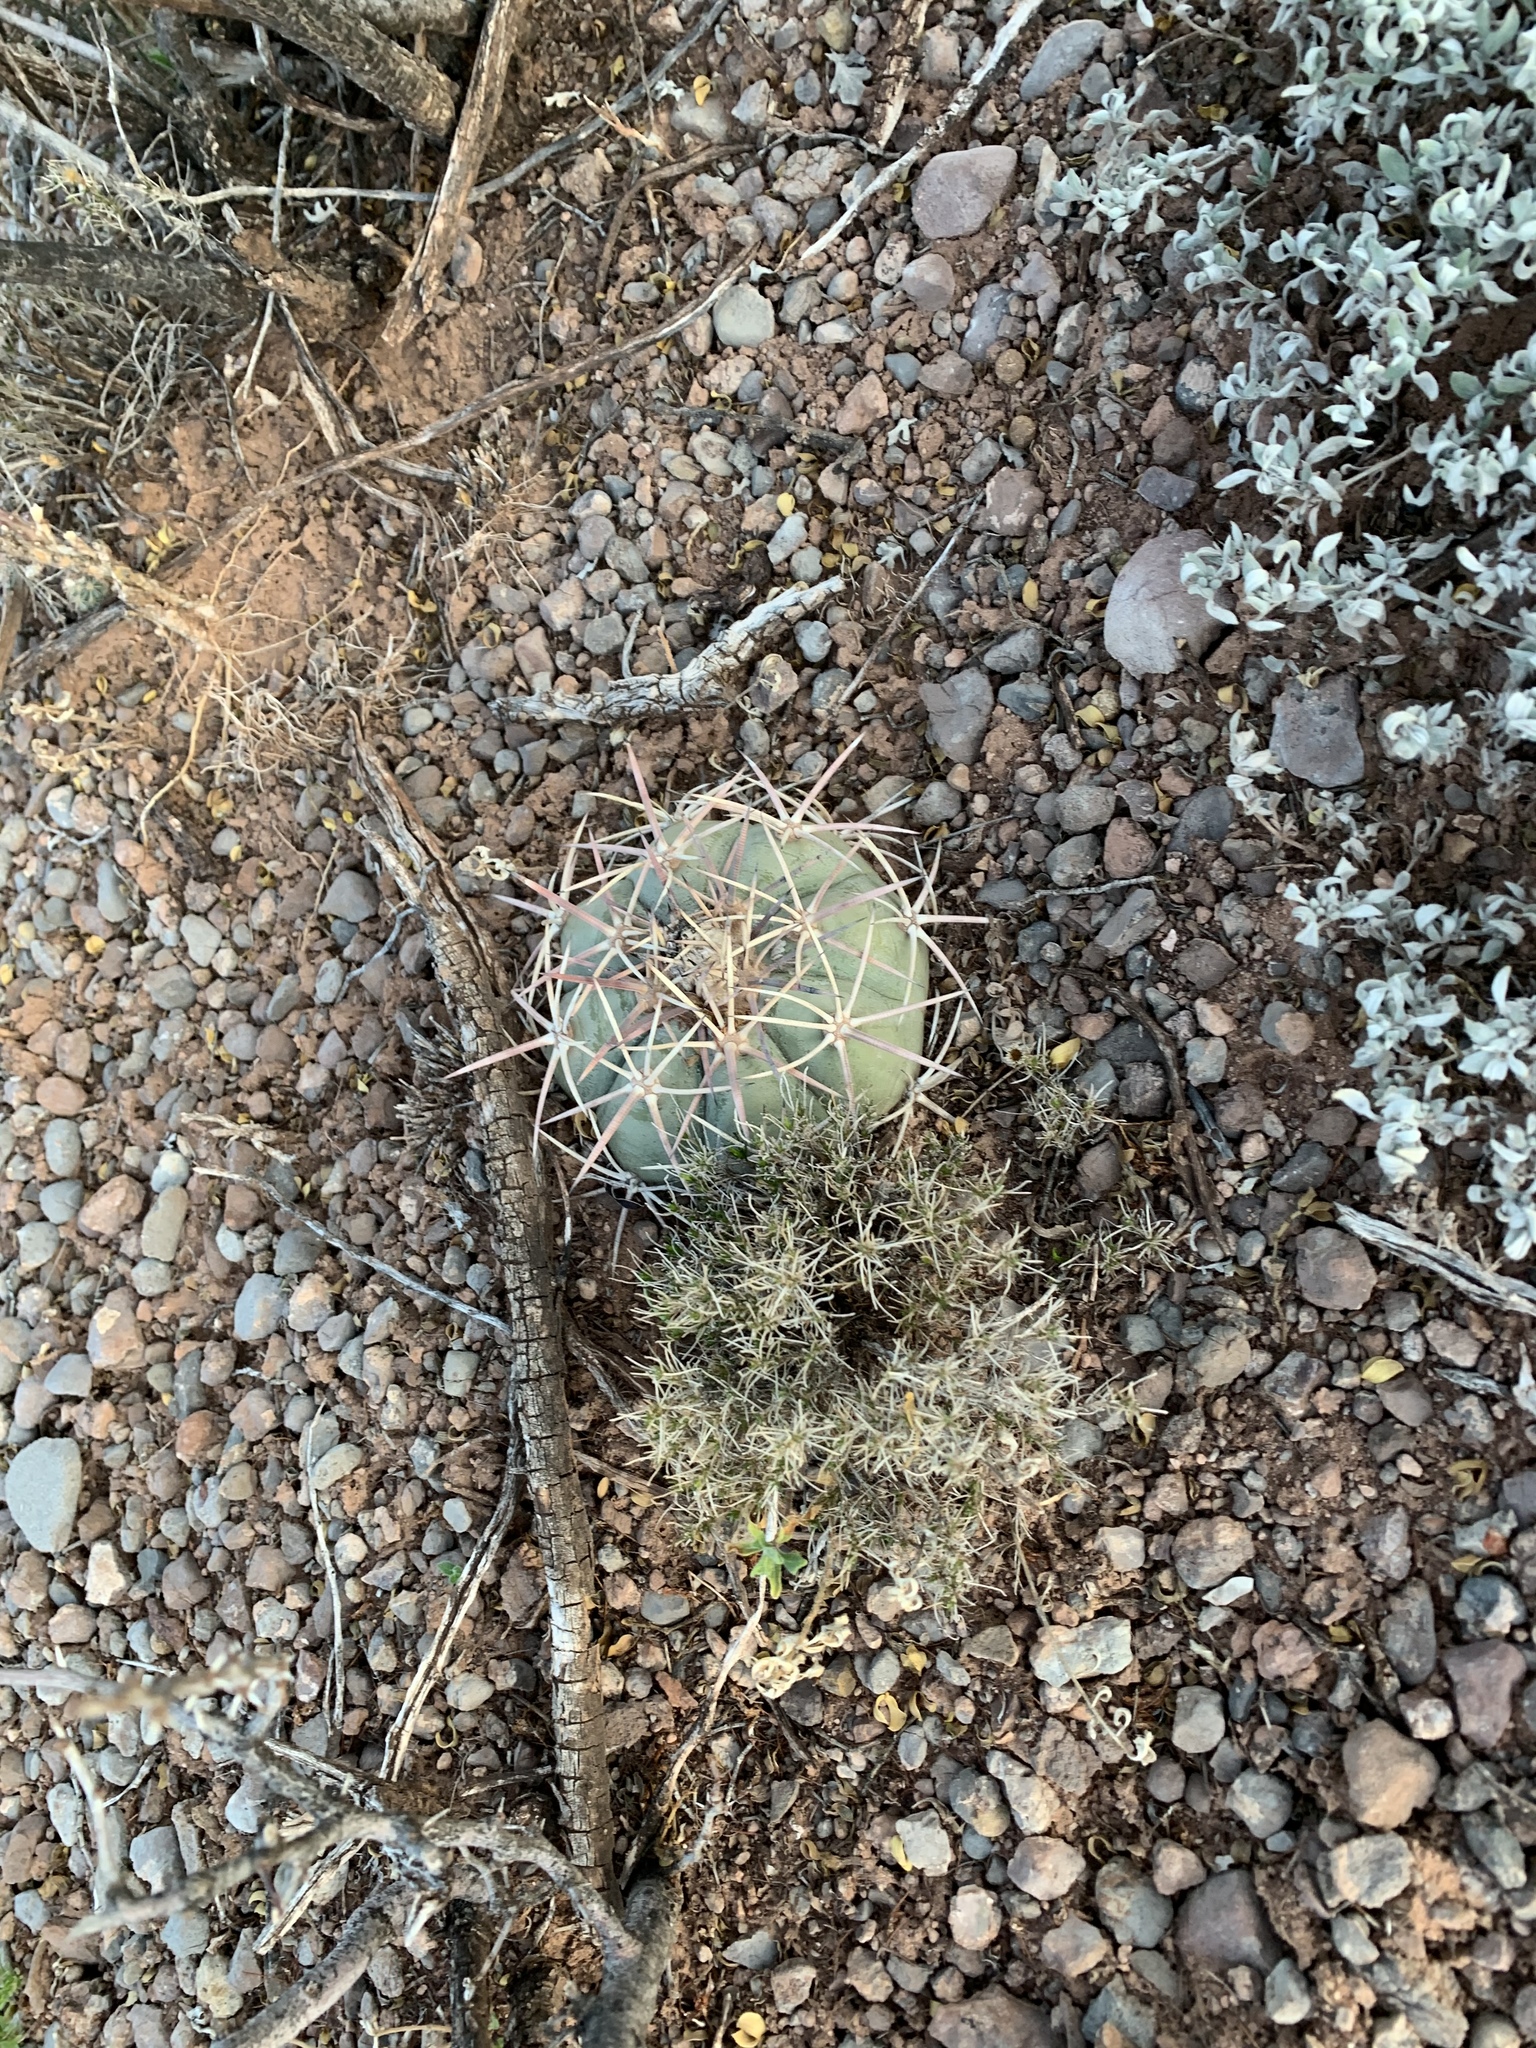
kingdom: Plantae
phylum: Tracheophyta
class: Magnoliopsida
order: Caryophyllales
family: Cactaceae
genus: Echinocactus
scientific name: Echinocactus horizonthalonius
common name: Devilshead
